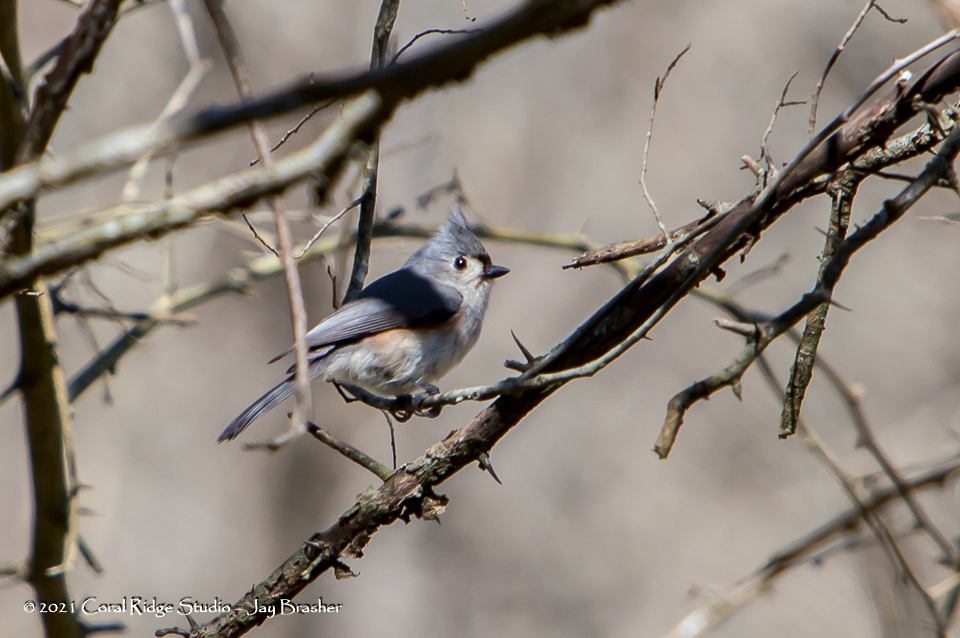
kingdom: Animalia
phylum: Chordata
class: Aves
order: Passeriformes
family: Paridae
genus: Baeolophus
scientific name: Baeolophus bicolor
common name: Tufted titmouse
